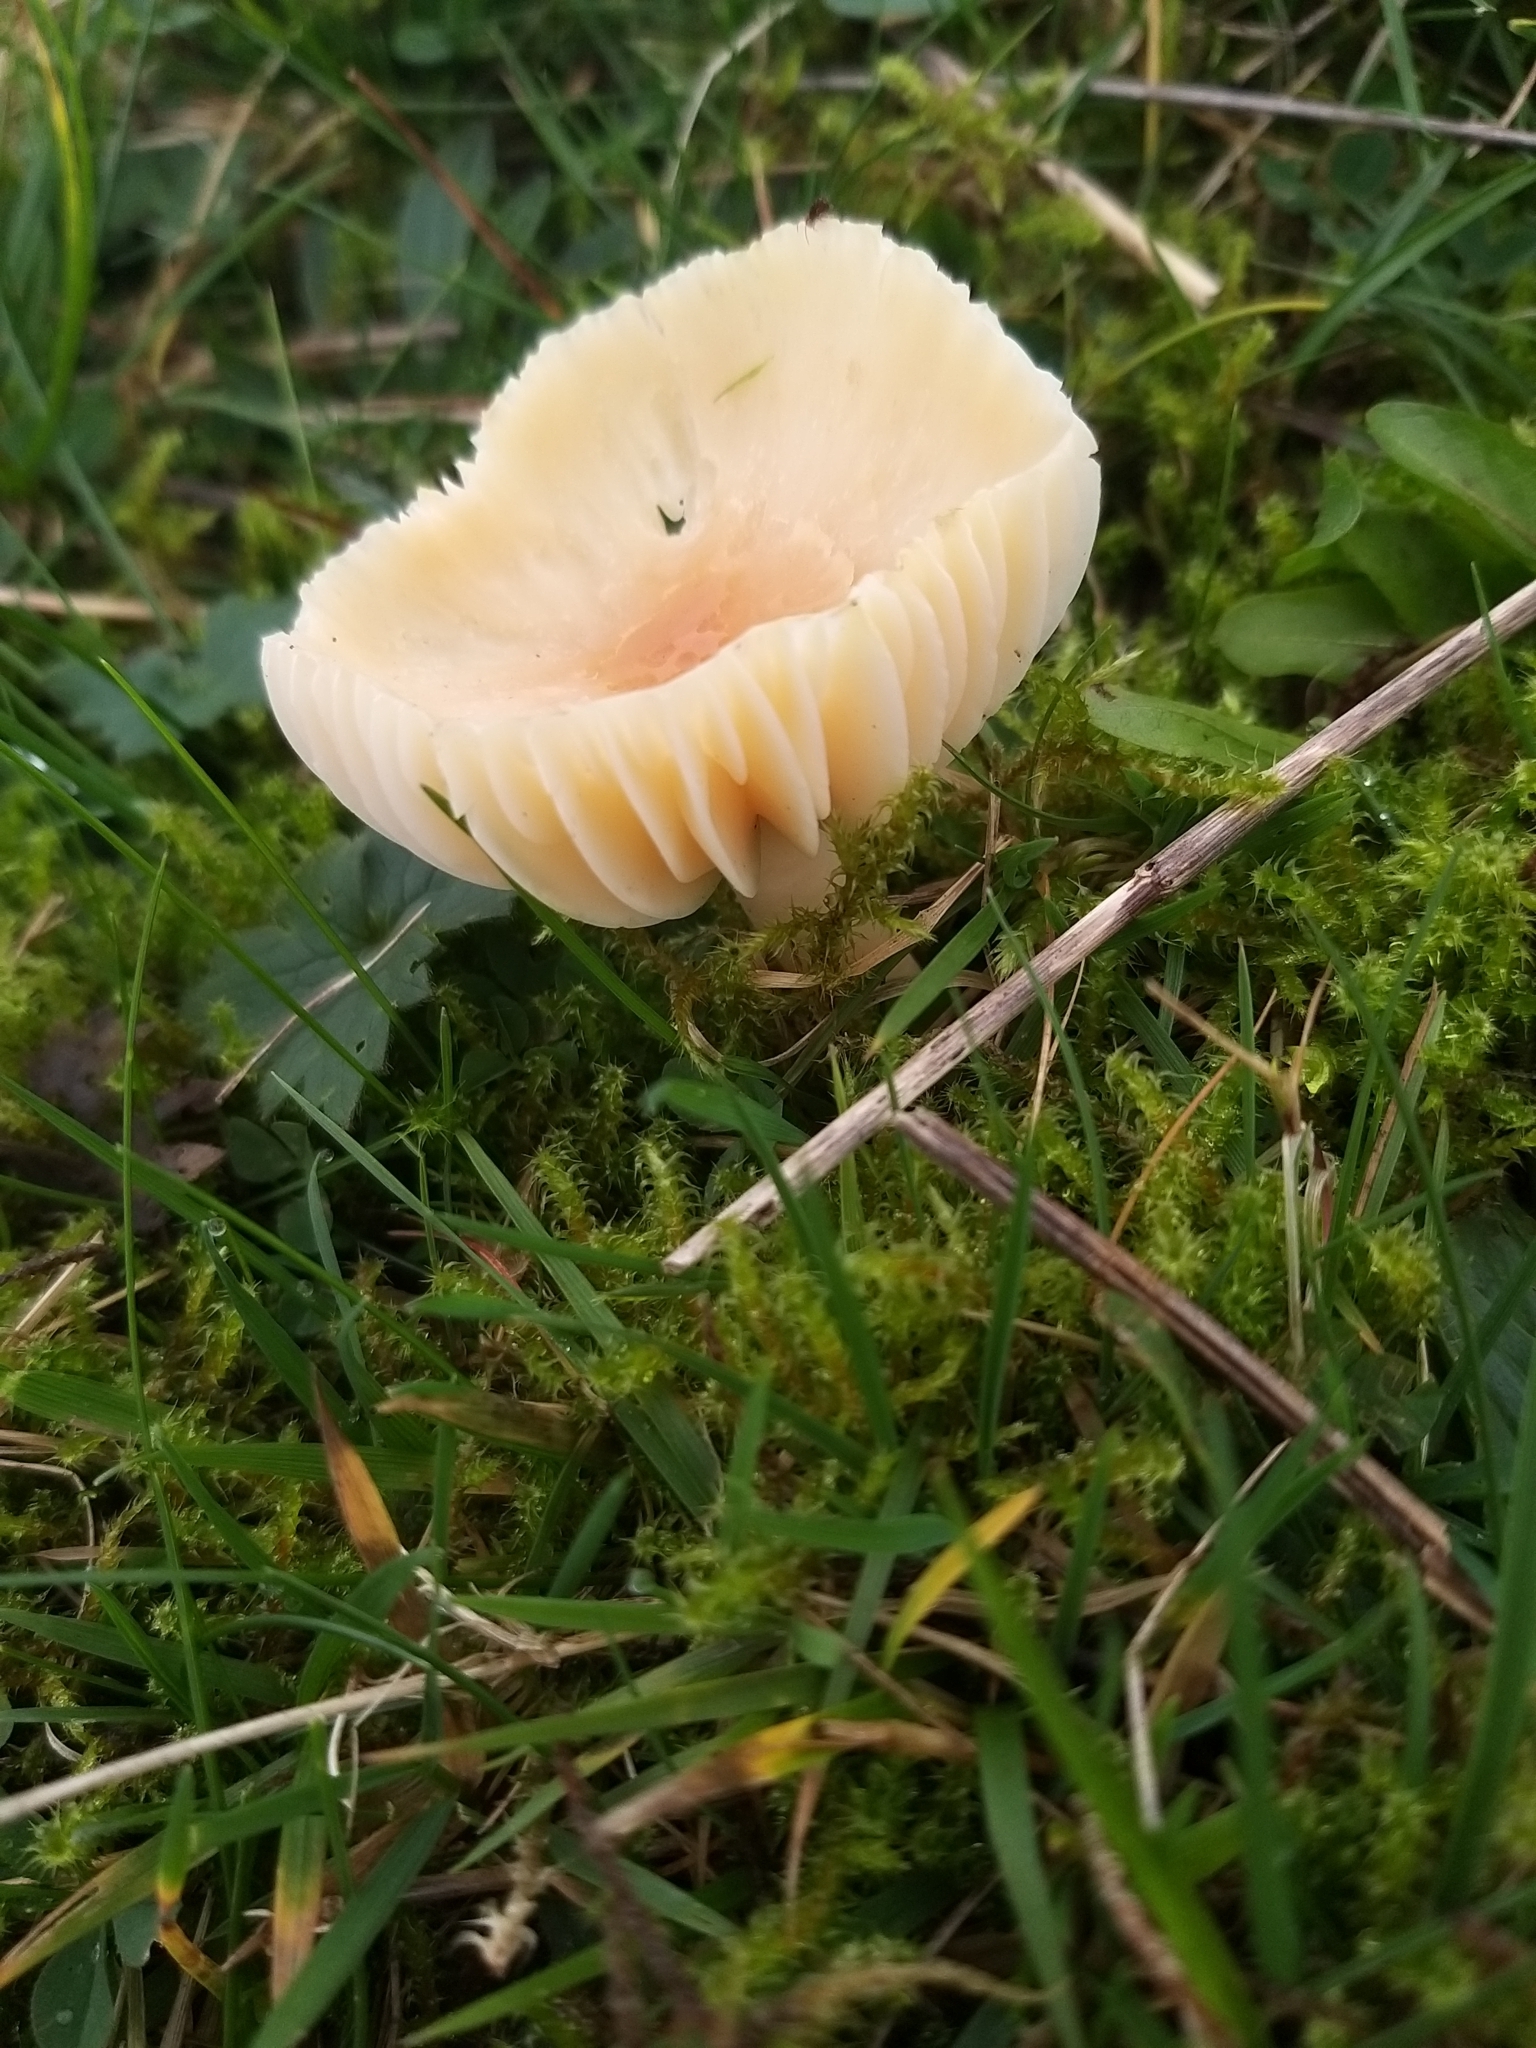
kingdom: Fungi
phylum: Basidiomycota
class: Agaricomycetes
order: Agaricales
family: Hygrophoraceae
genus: Cuphophyllus
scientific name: Cuphophyllus pratensis
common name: Meadow waxcap
